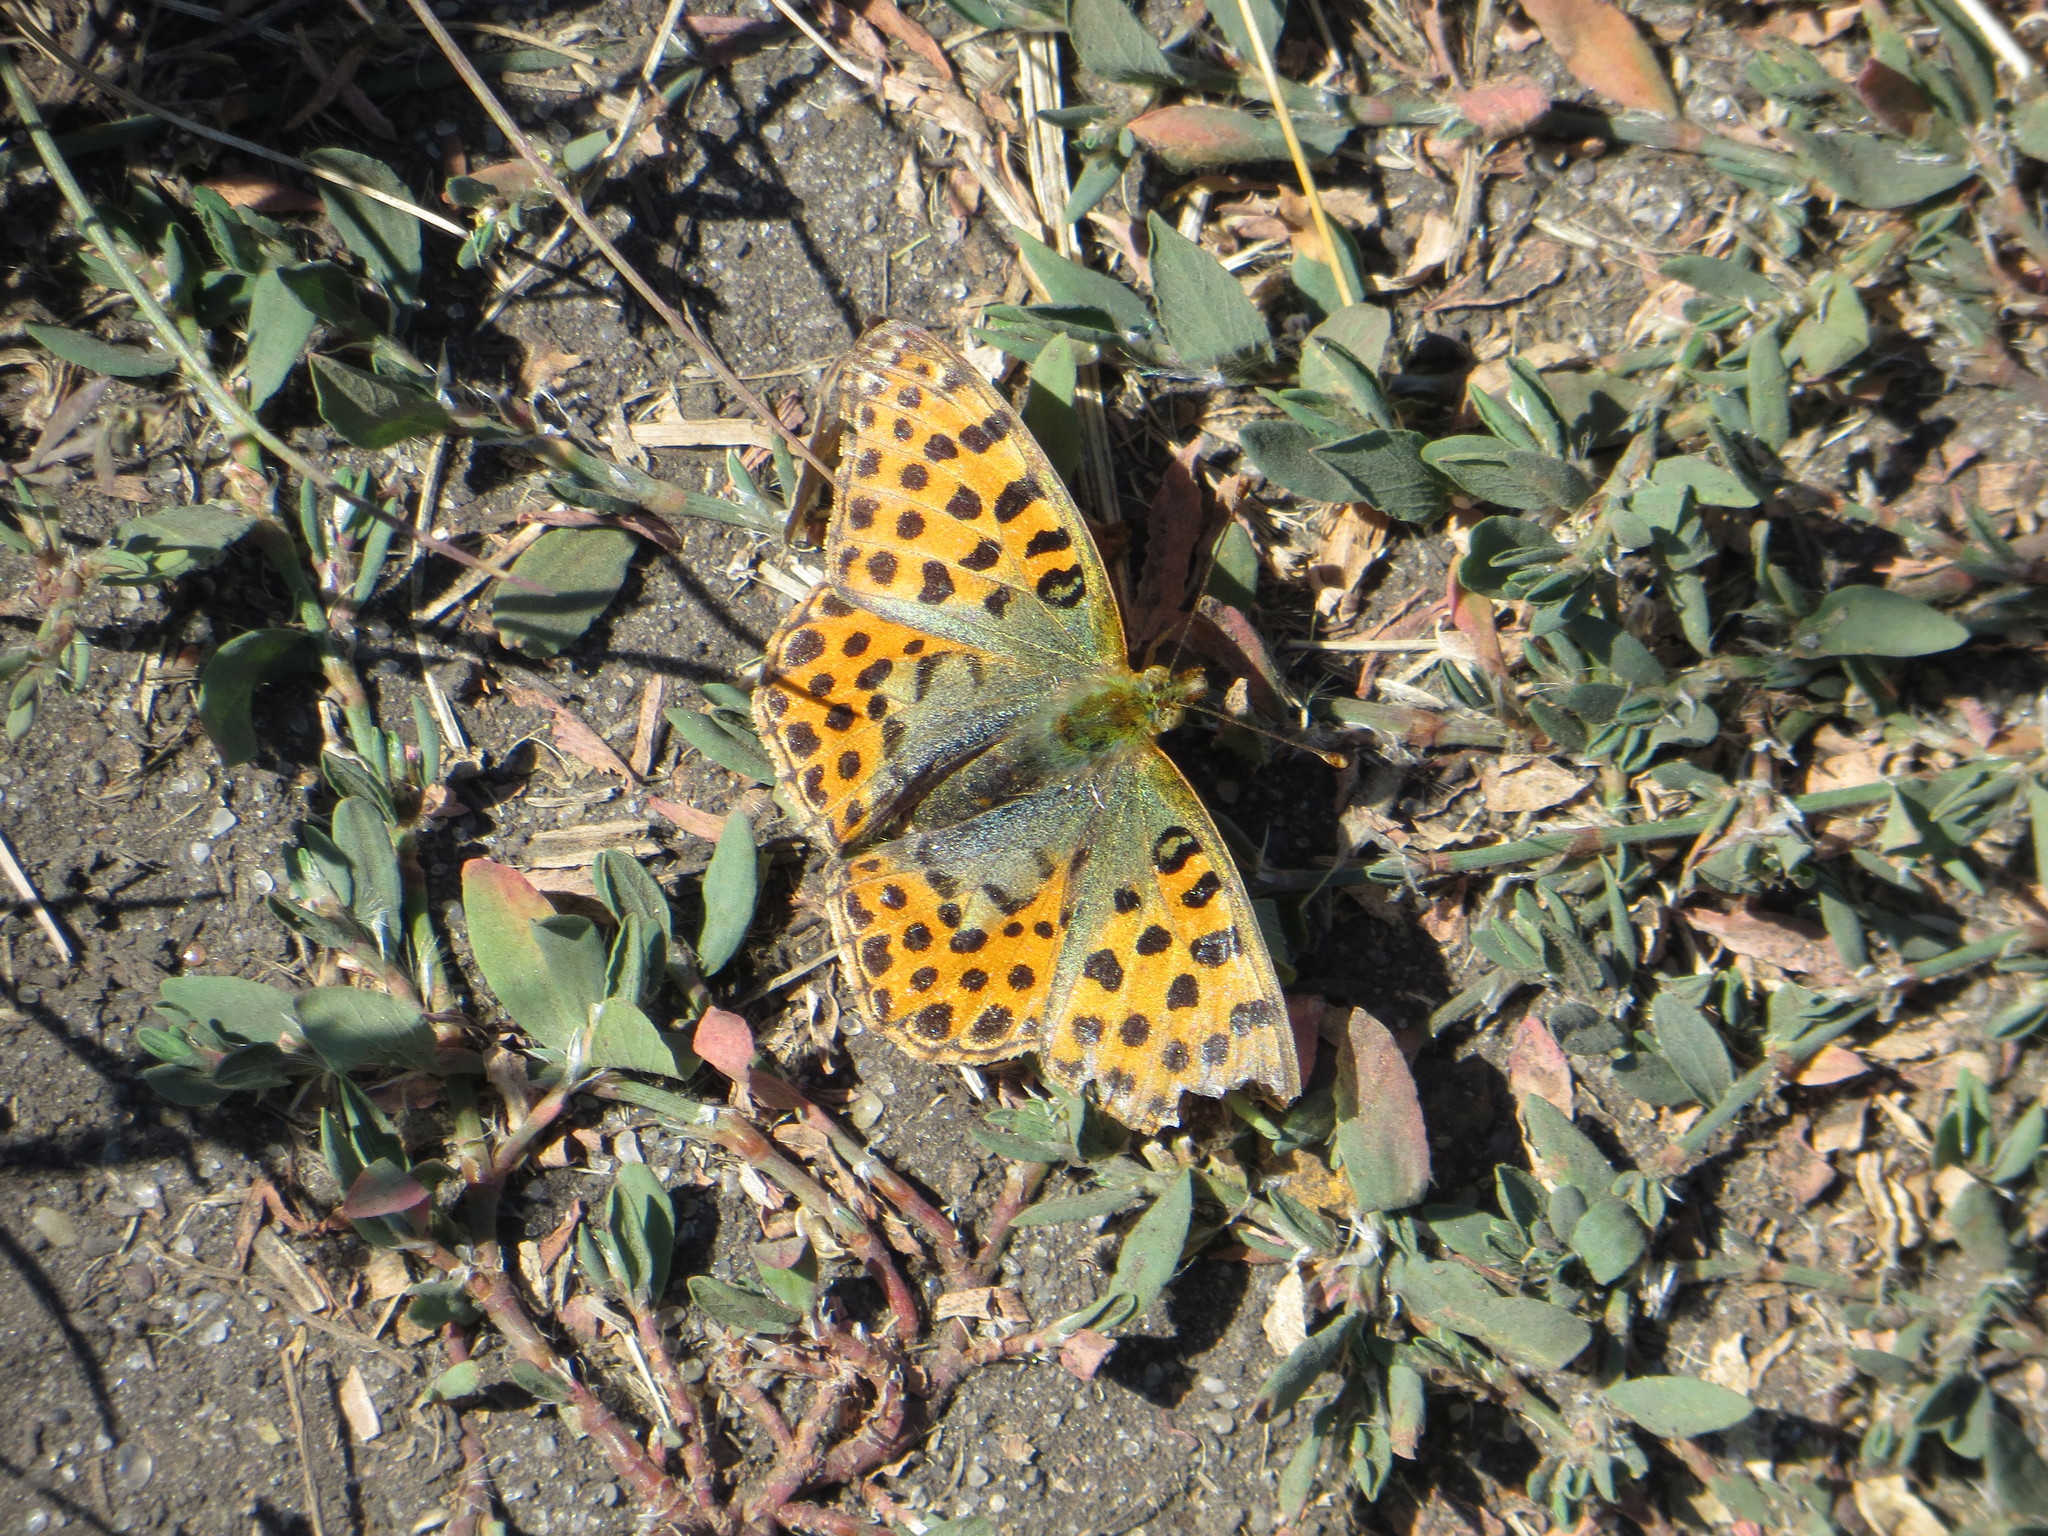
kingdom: Animalia
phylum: Arthropoda
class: Insecta
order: Lepidoptera
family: Nymphalidae
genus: Issoria
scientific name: Issoria lathonia
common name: Queen of spain fritillary
